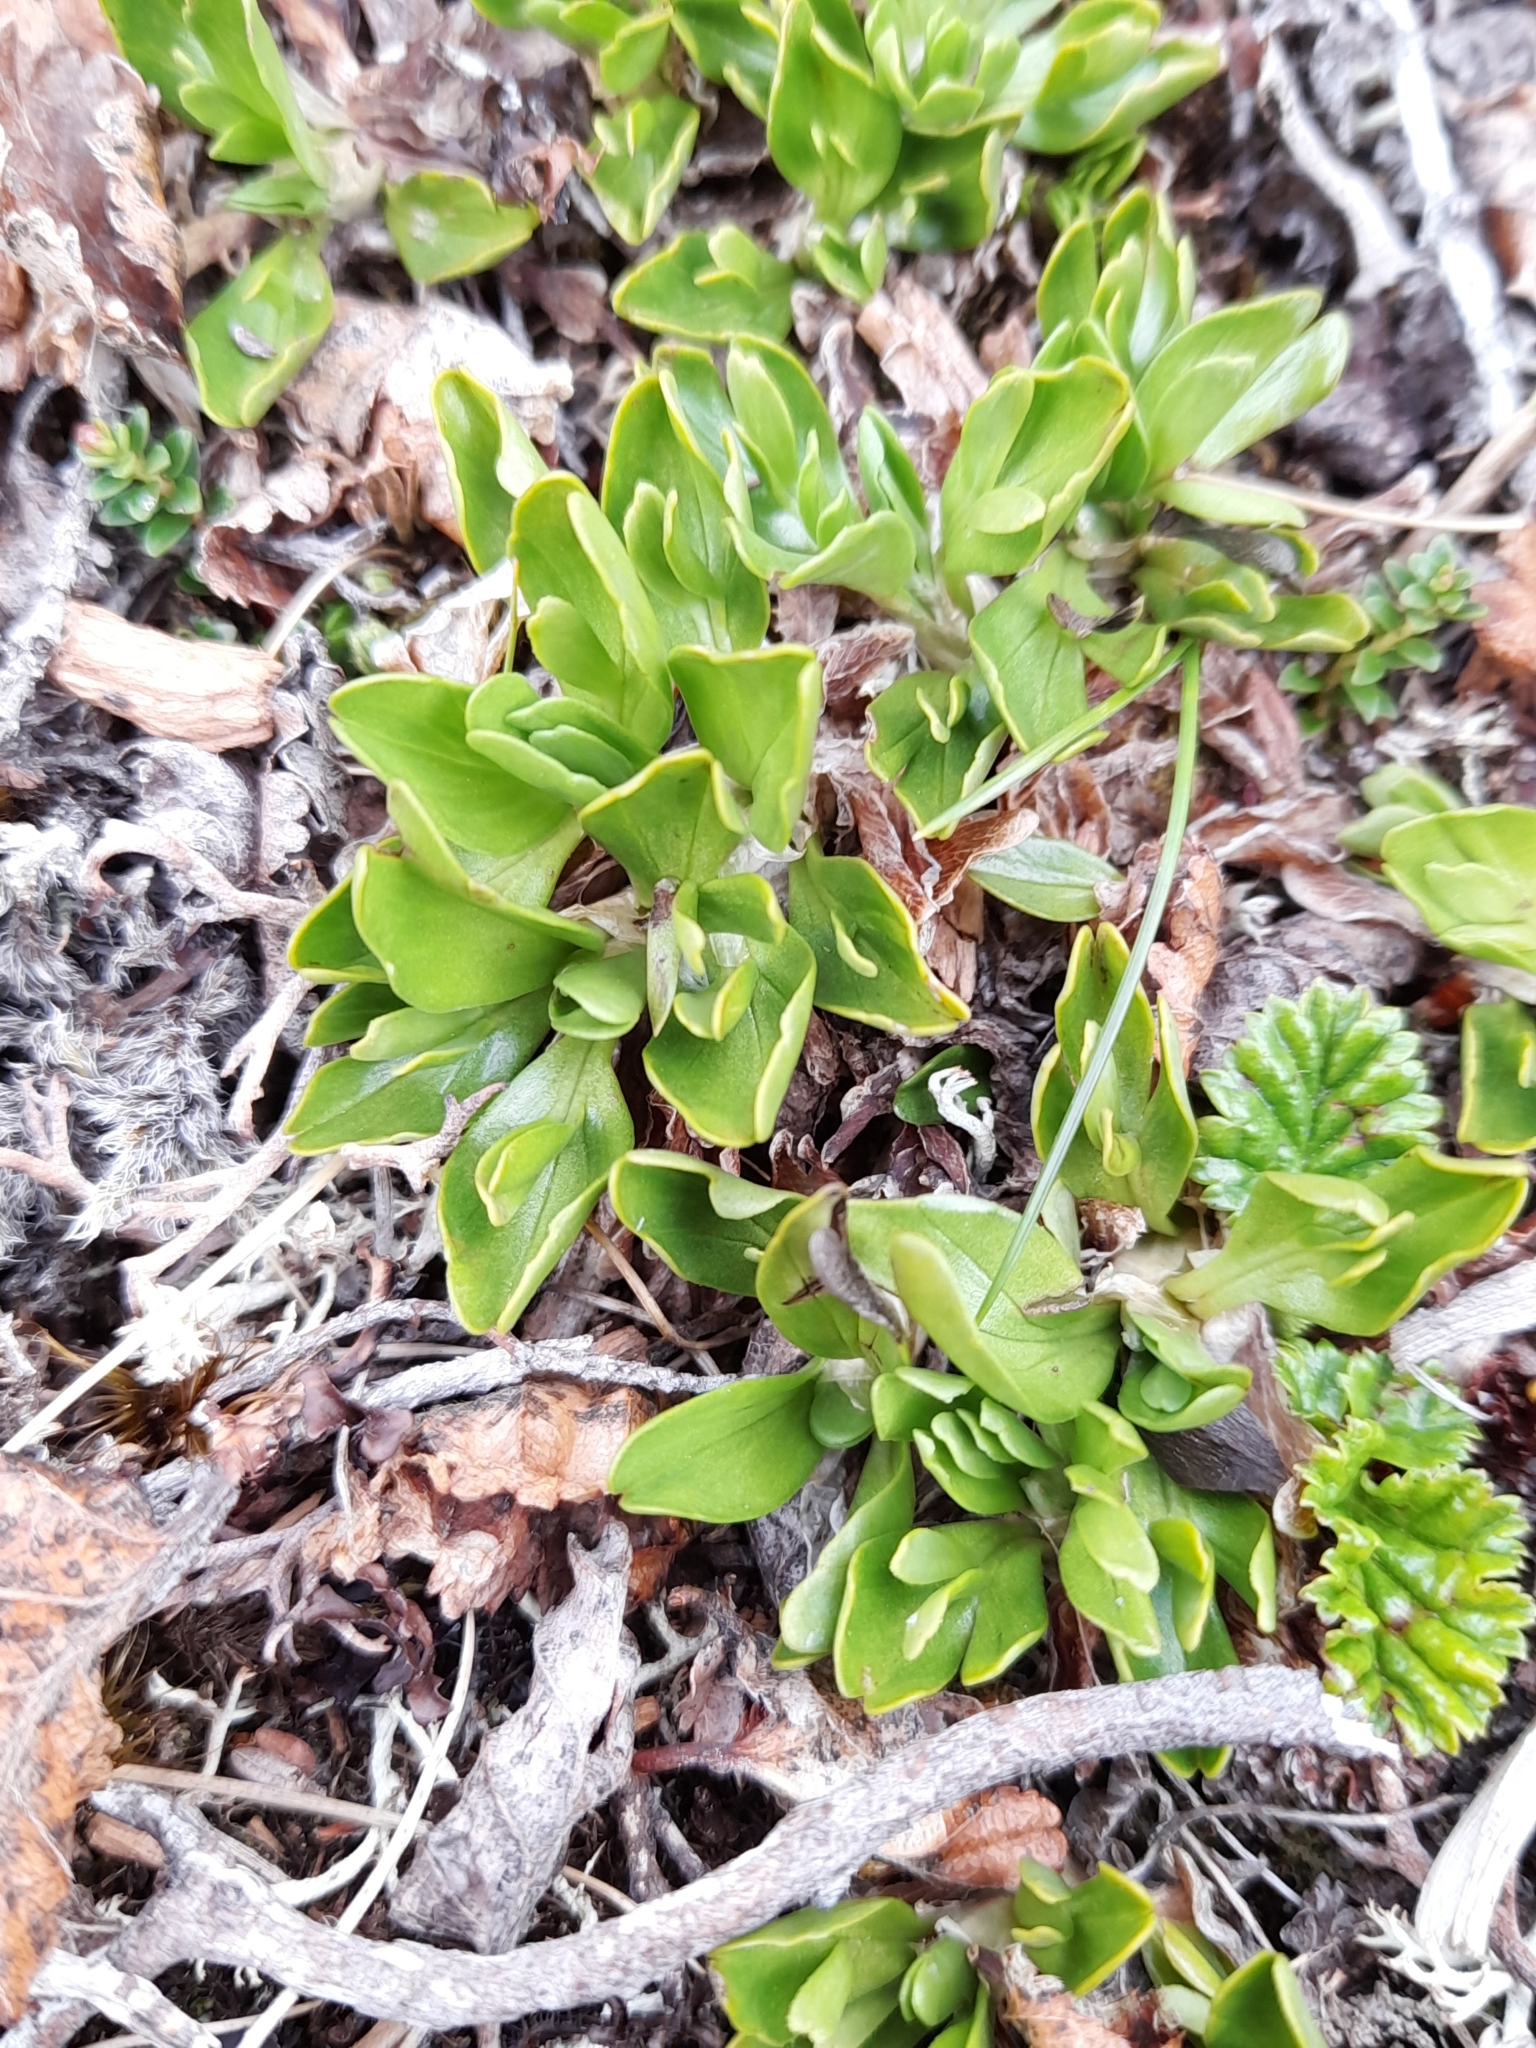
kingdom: Plantae
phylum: Tracheophyta
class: Magnoliopsida
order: Ranunculales
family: Ranunculaceae
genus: Caltha
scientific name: Caltha appendiculata
